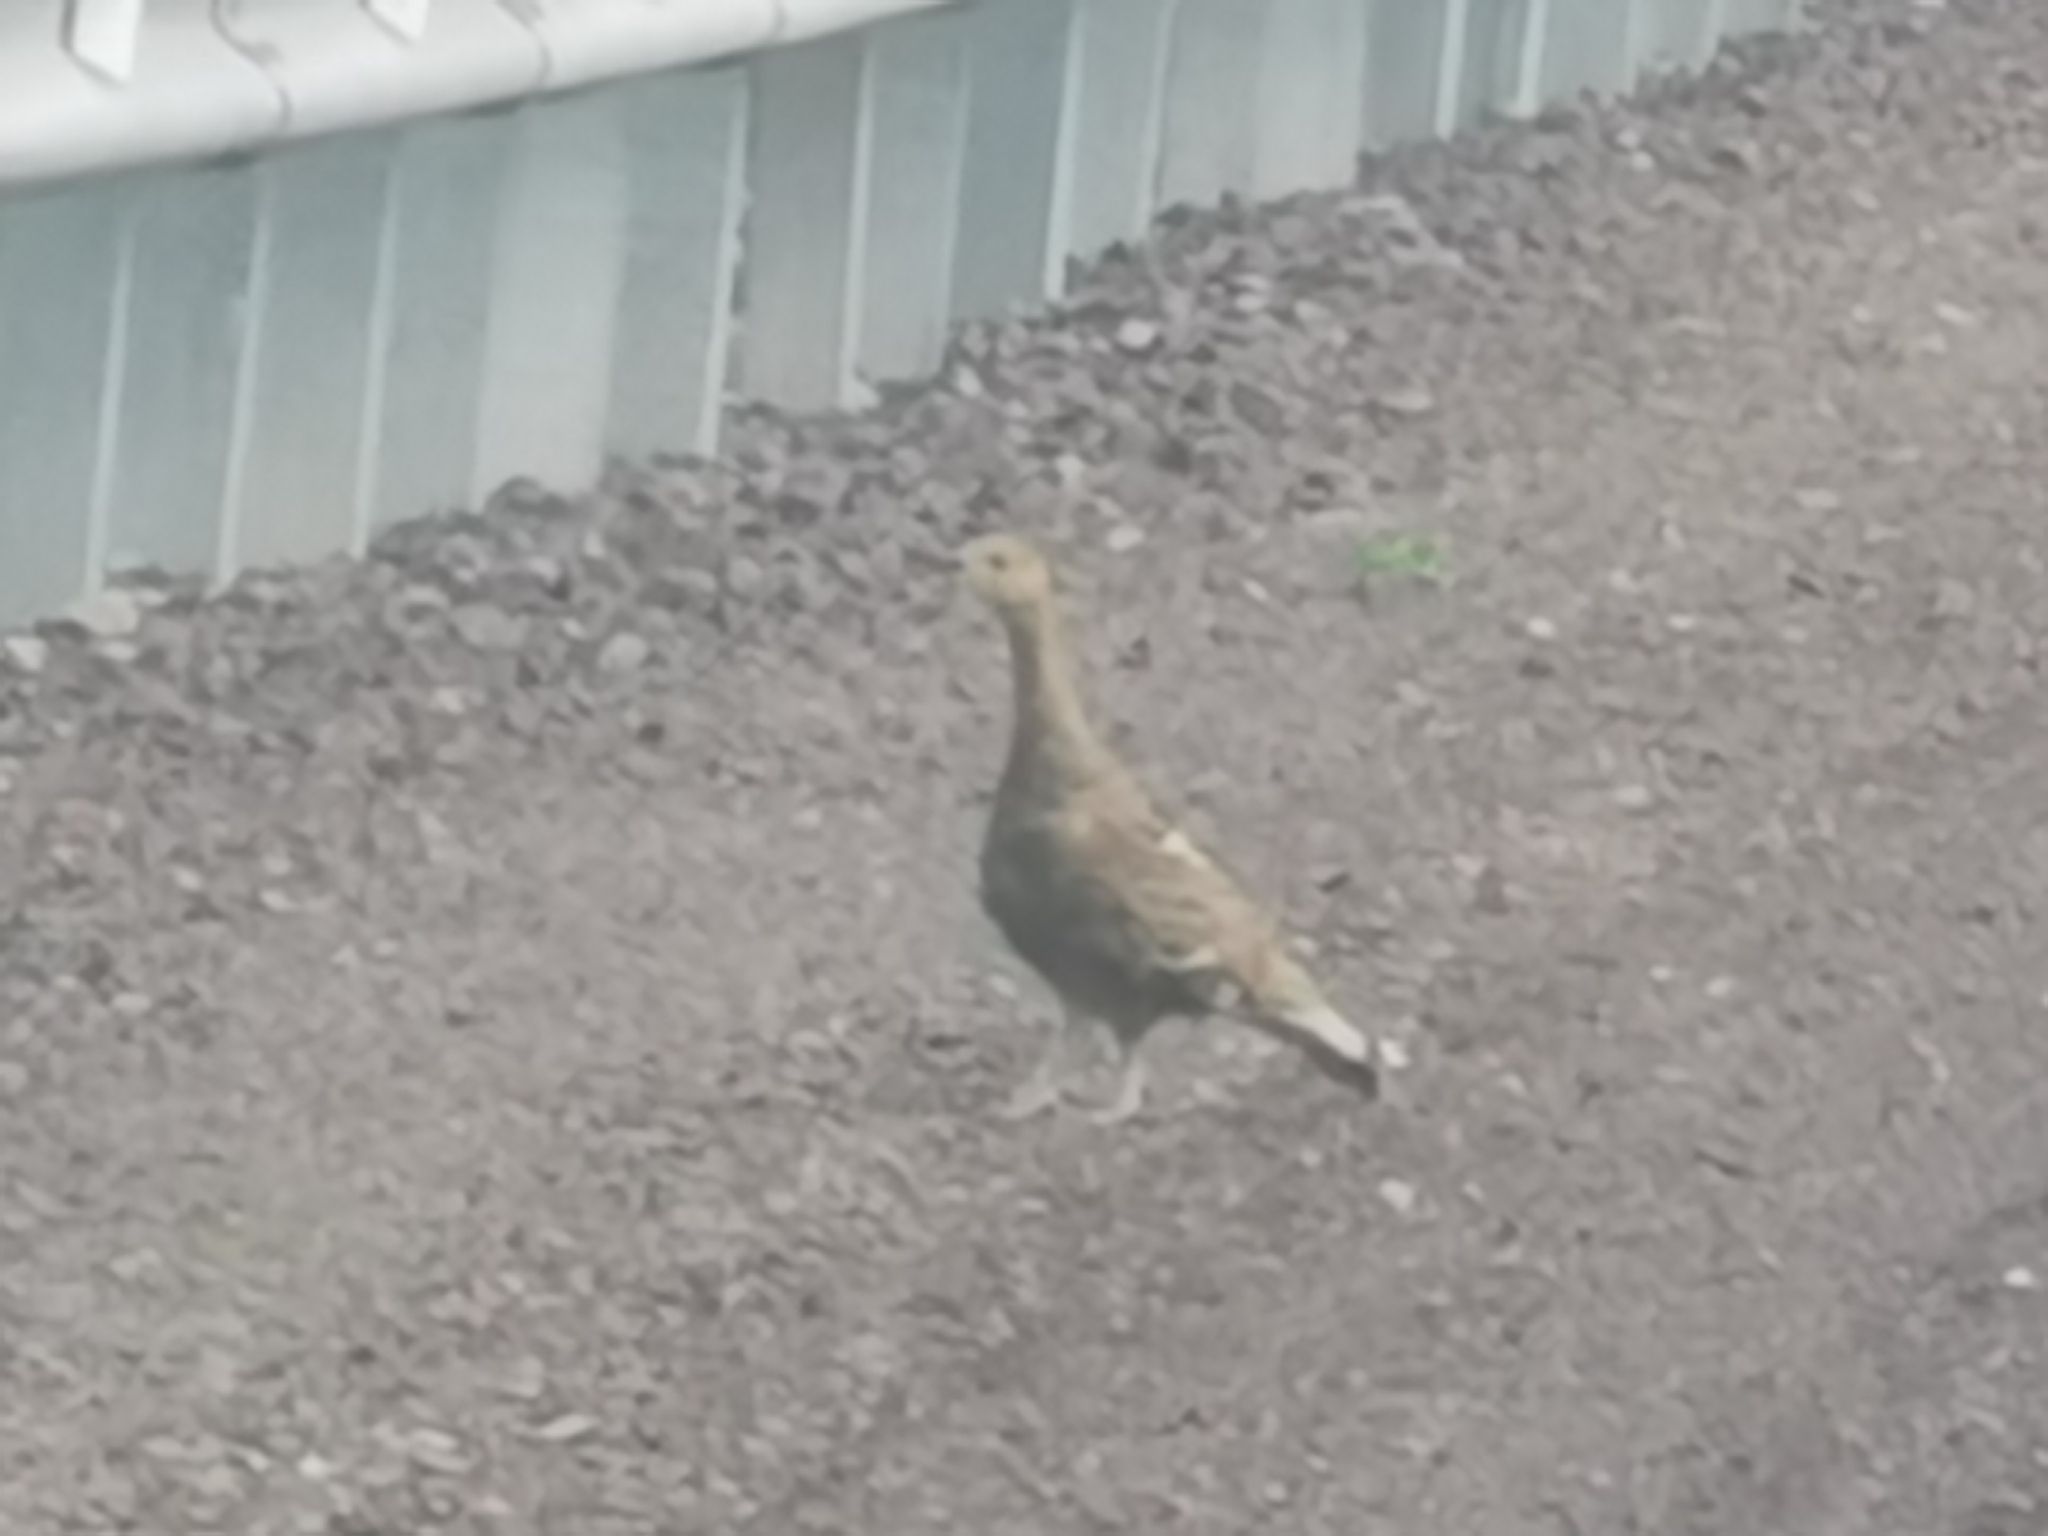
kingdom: Animalia
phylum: Chordata
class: Aves
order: Galliformes
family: Phasianidae
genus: Tetrao
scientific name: Tetrao urogalloides
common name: Black-billed capercaillie
